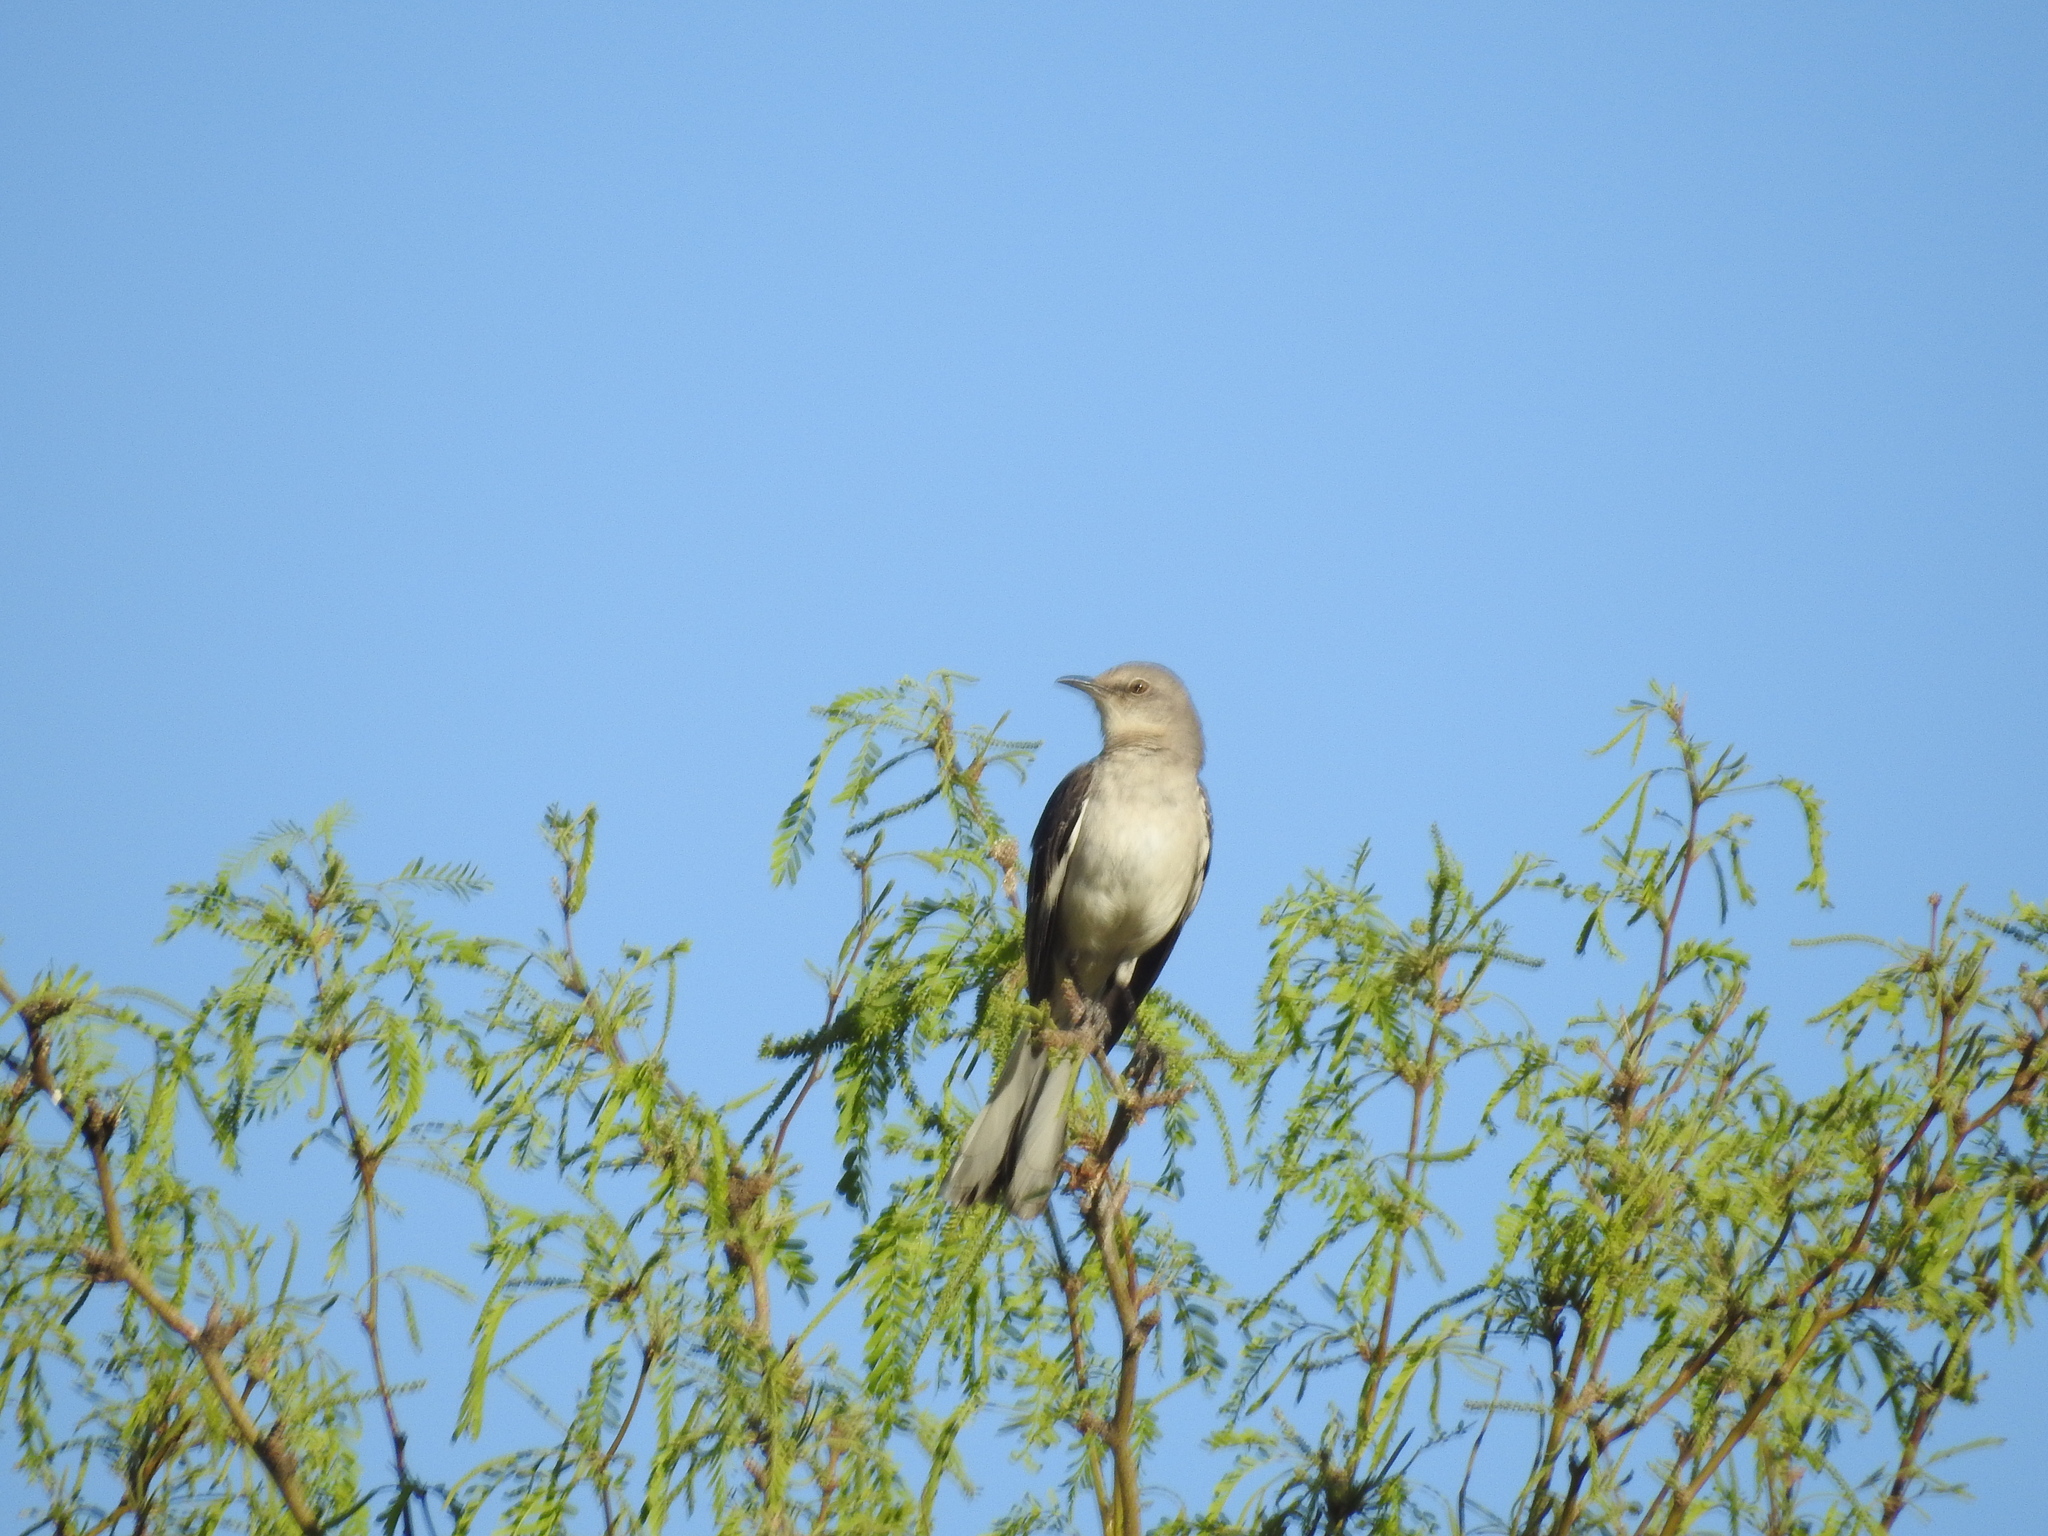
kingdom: Animalia
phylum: Chordata
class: Aves
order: Passeriformes
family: Mimidae
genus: Mimus
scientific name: Mimus polyglottos
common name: Northern mockingbird
